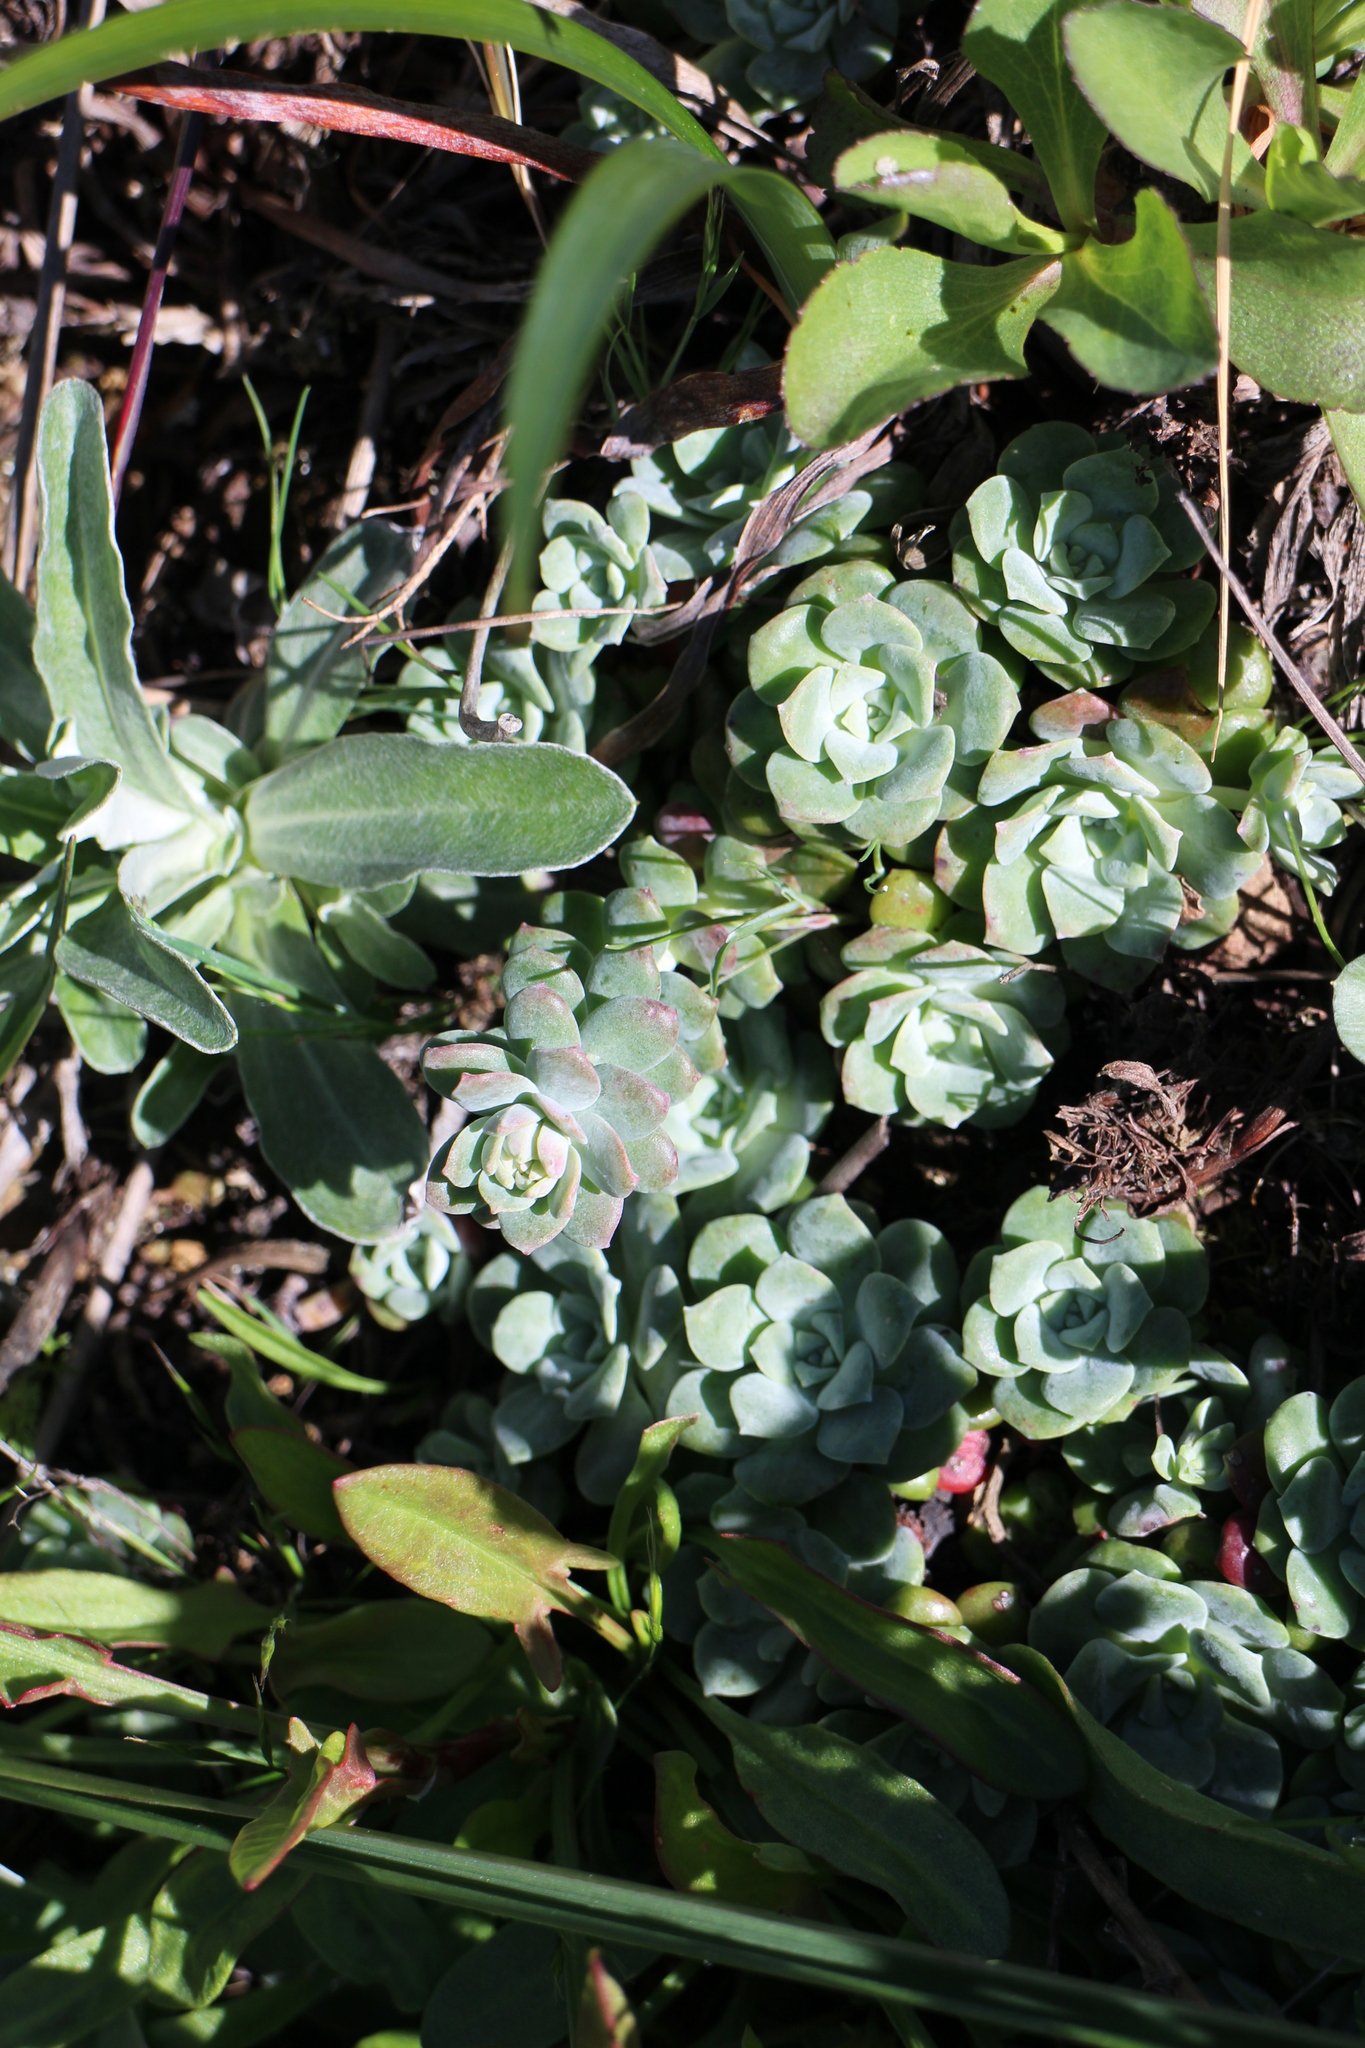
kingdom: Plantae
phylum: Tracheophyta
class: Magnoliopsida
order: Saxifragales
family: Crassulaceae
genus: Sedum
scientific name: Sedum spathulifolium
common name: Colorado stonecrop
